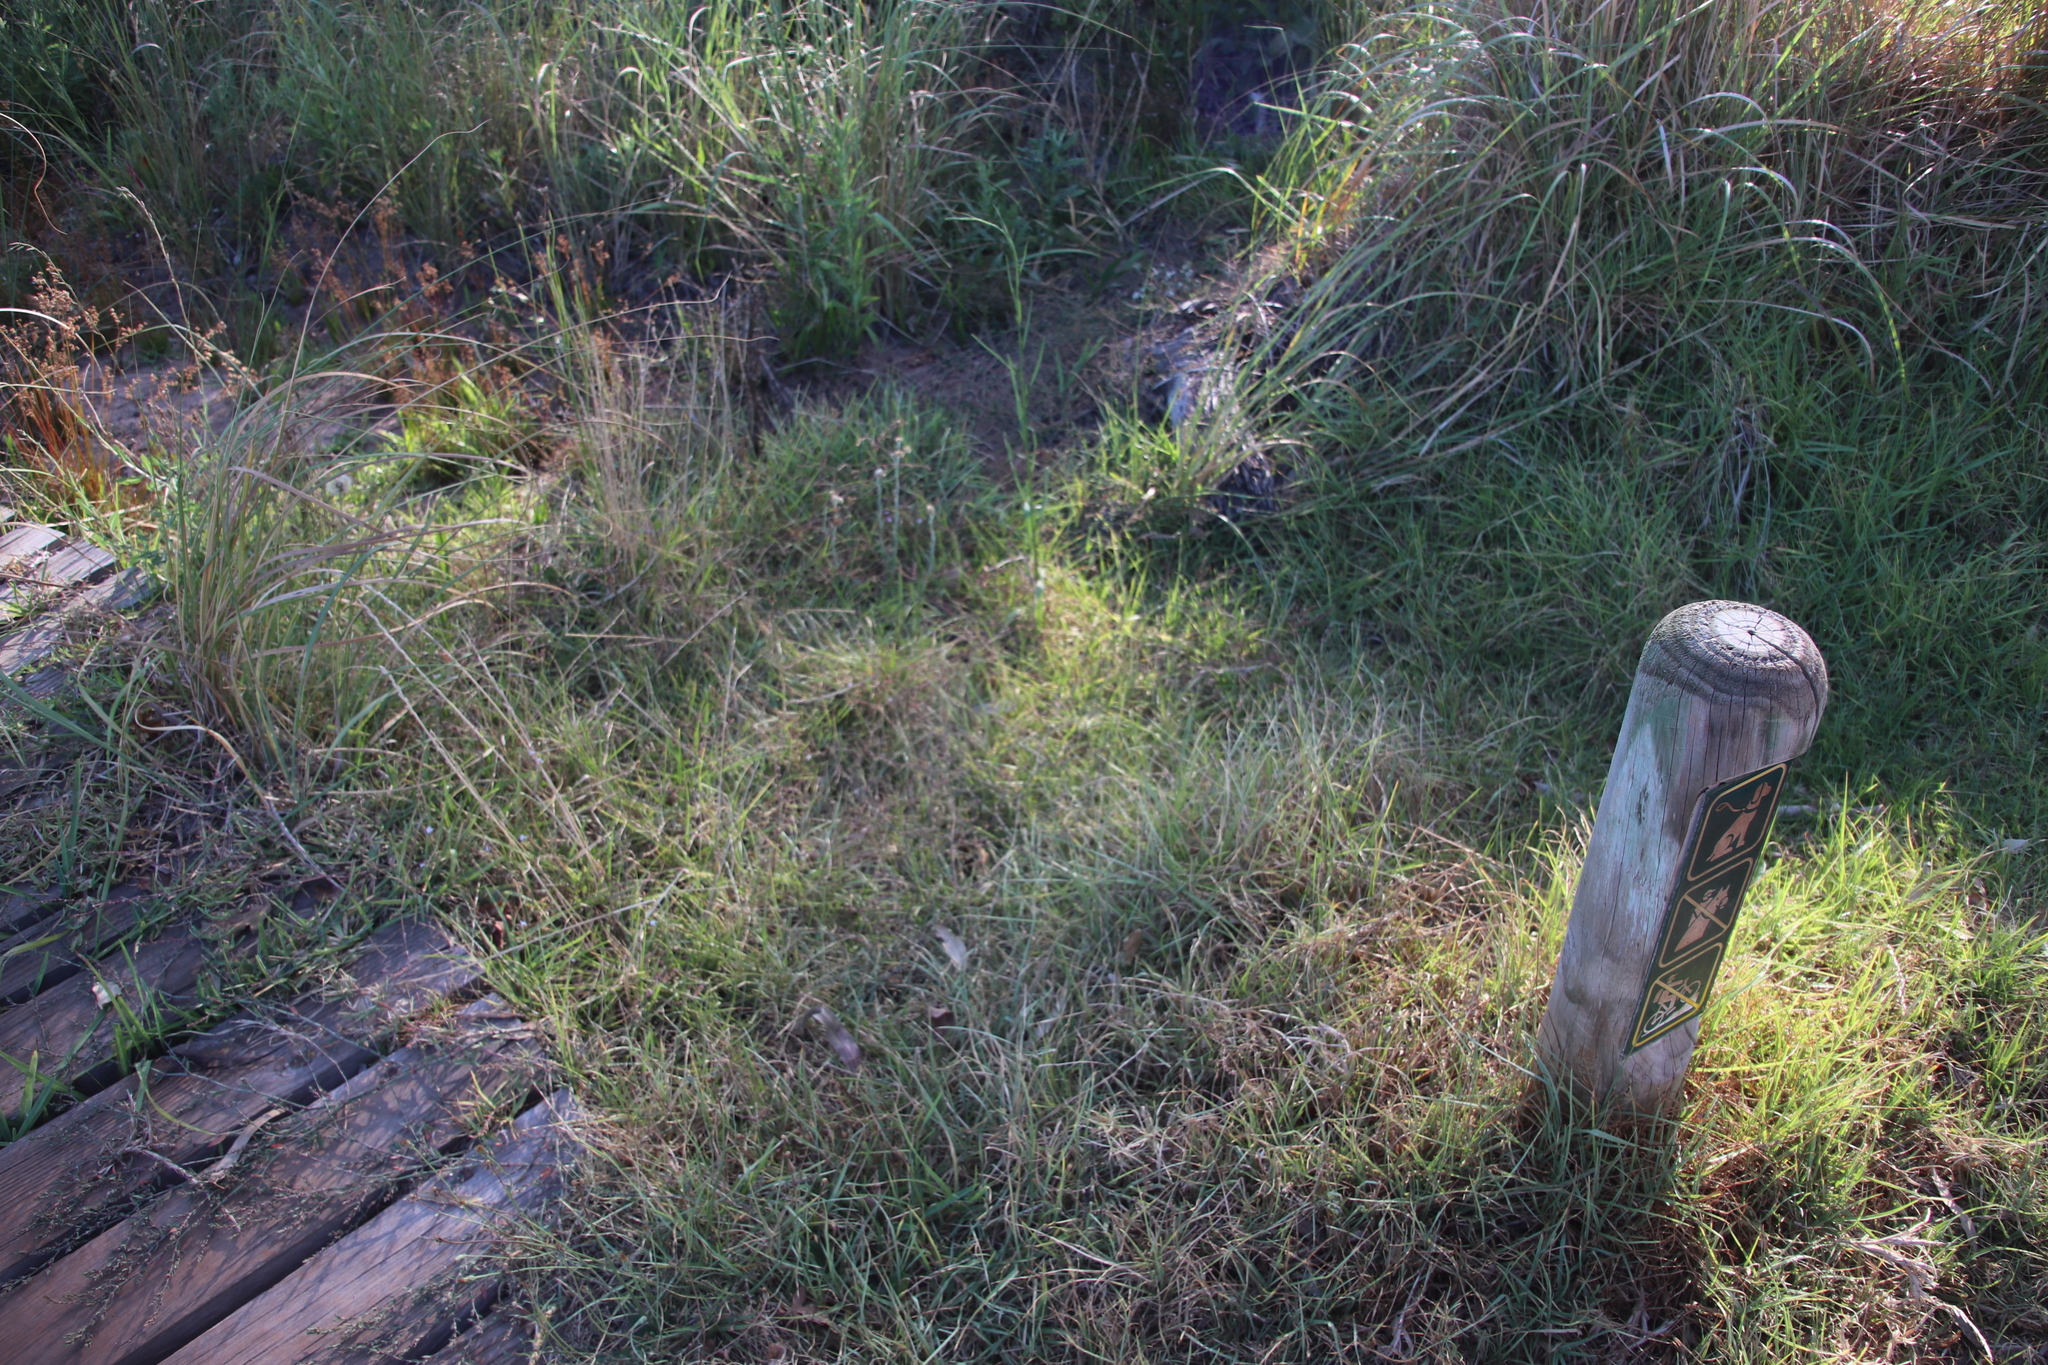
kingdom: Plantae
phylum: Tracheophyta
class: Liliopsida
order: Poales
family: Poaceae
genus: Cenchrus
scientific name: Cenchrus clandestinus
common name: Kikuyugrass
